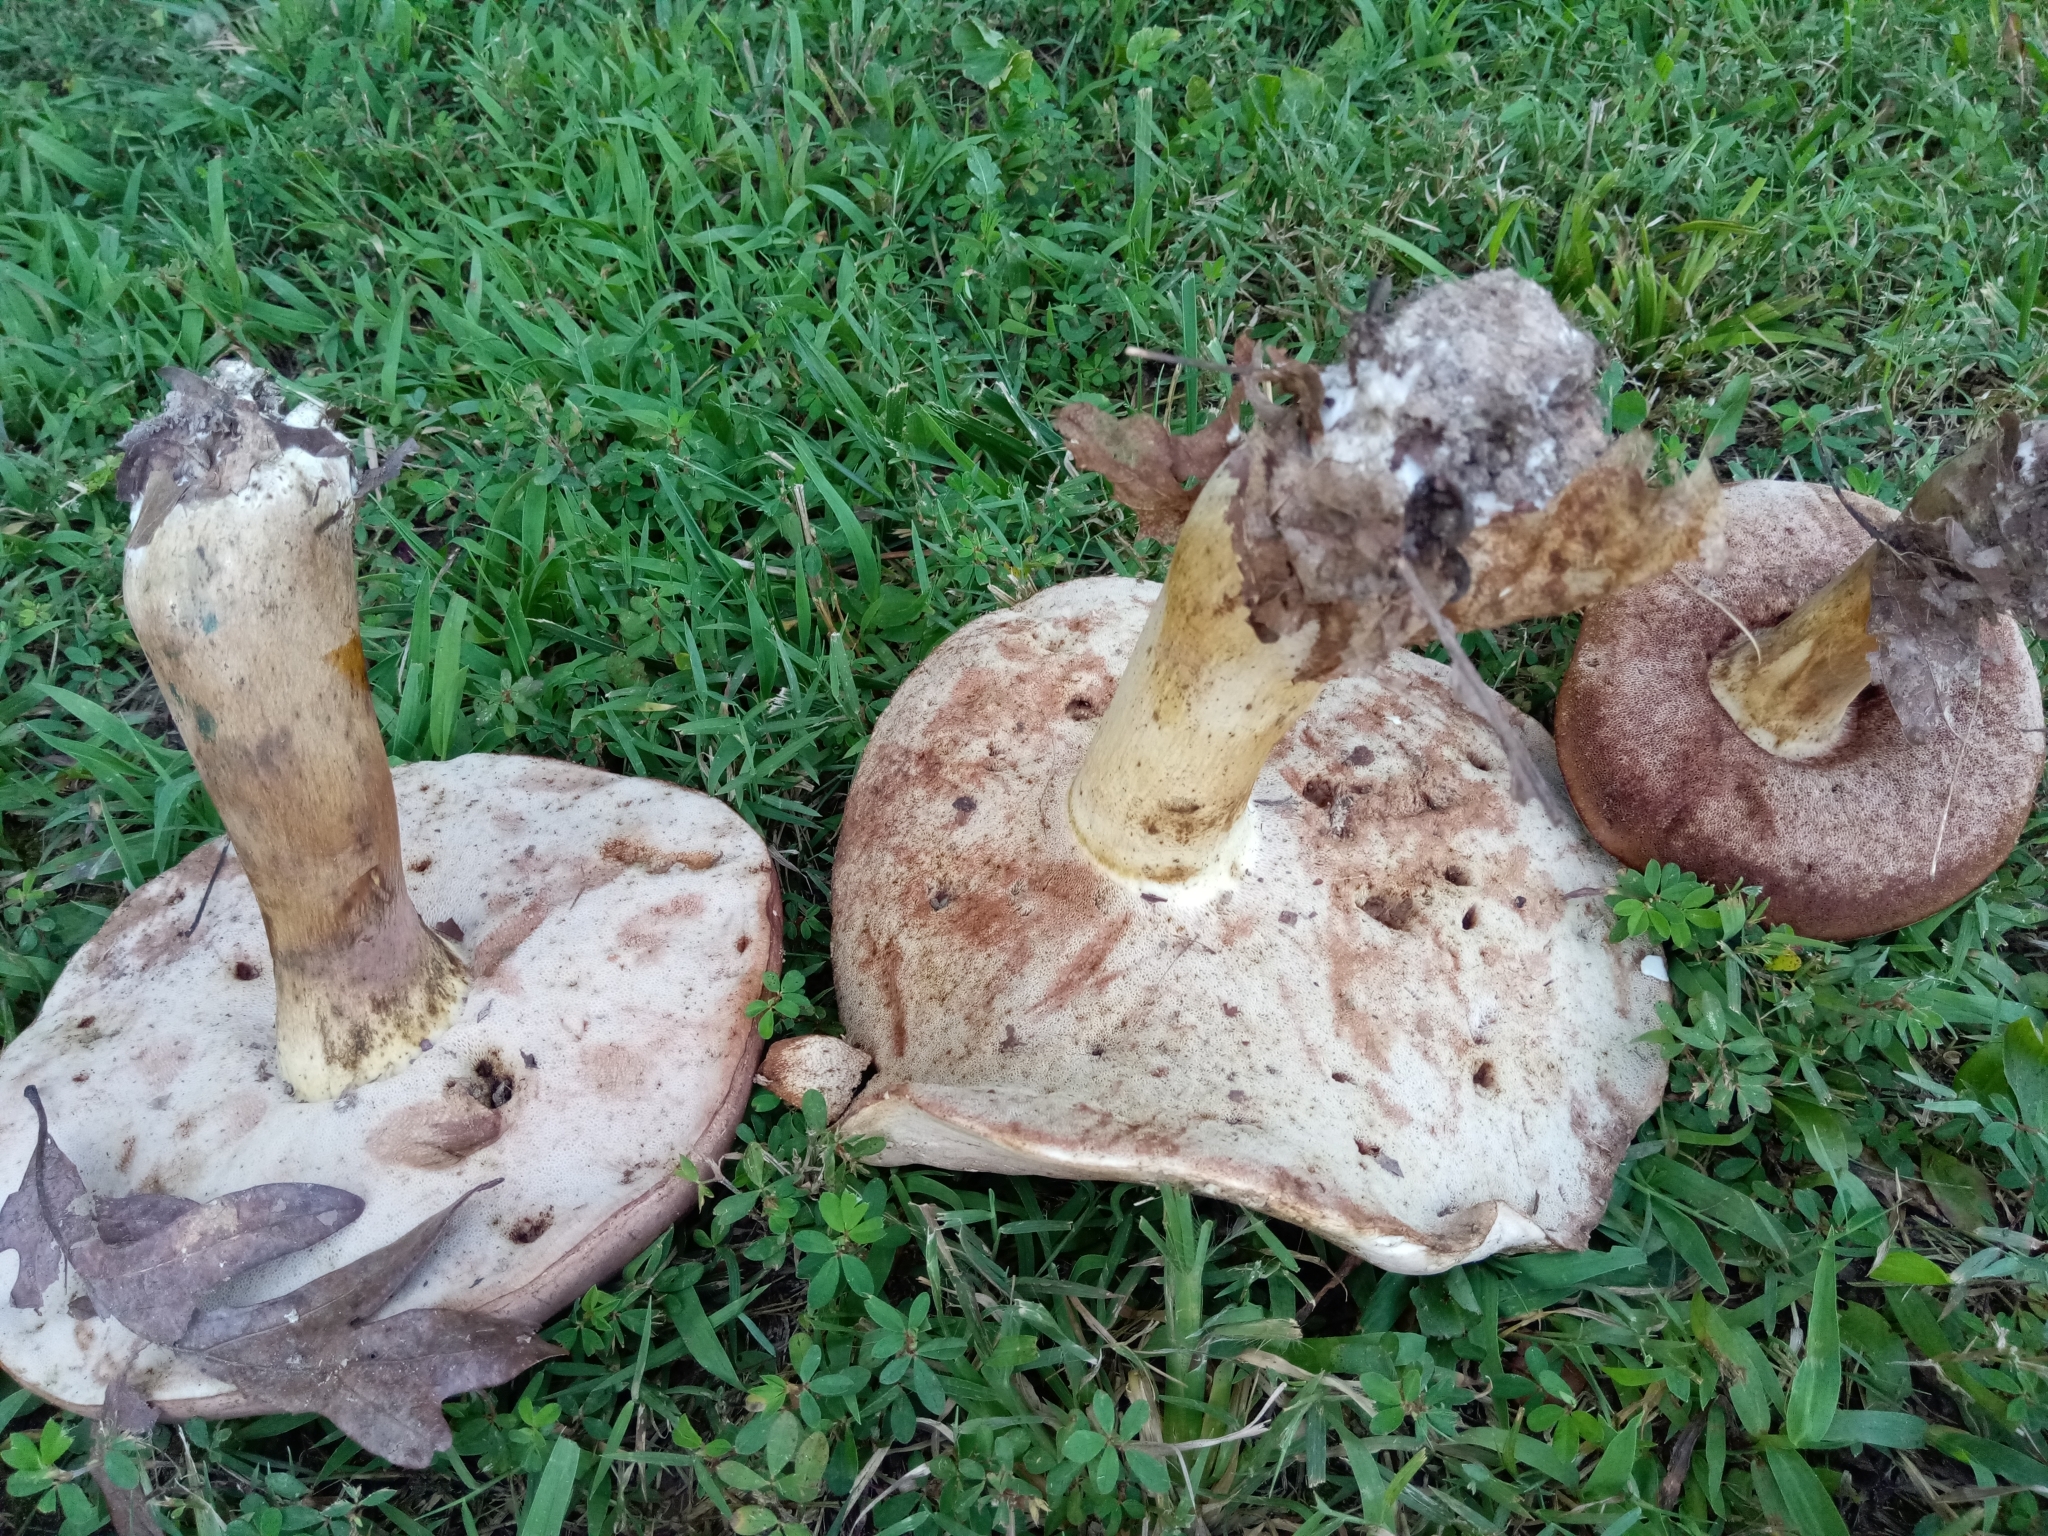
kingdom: Fungi
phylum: Basidiomycota
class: Agaricomycetes
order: Boletales
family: Boletaceae
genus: Tylopilus
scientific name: Tylopilus rubrobrunneus
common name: Reddish brown bitter bolete
